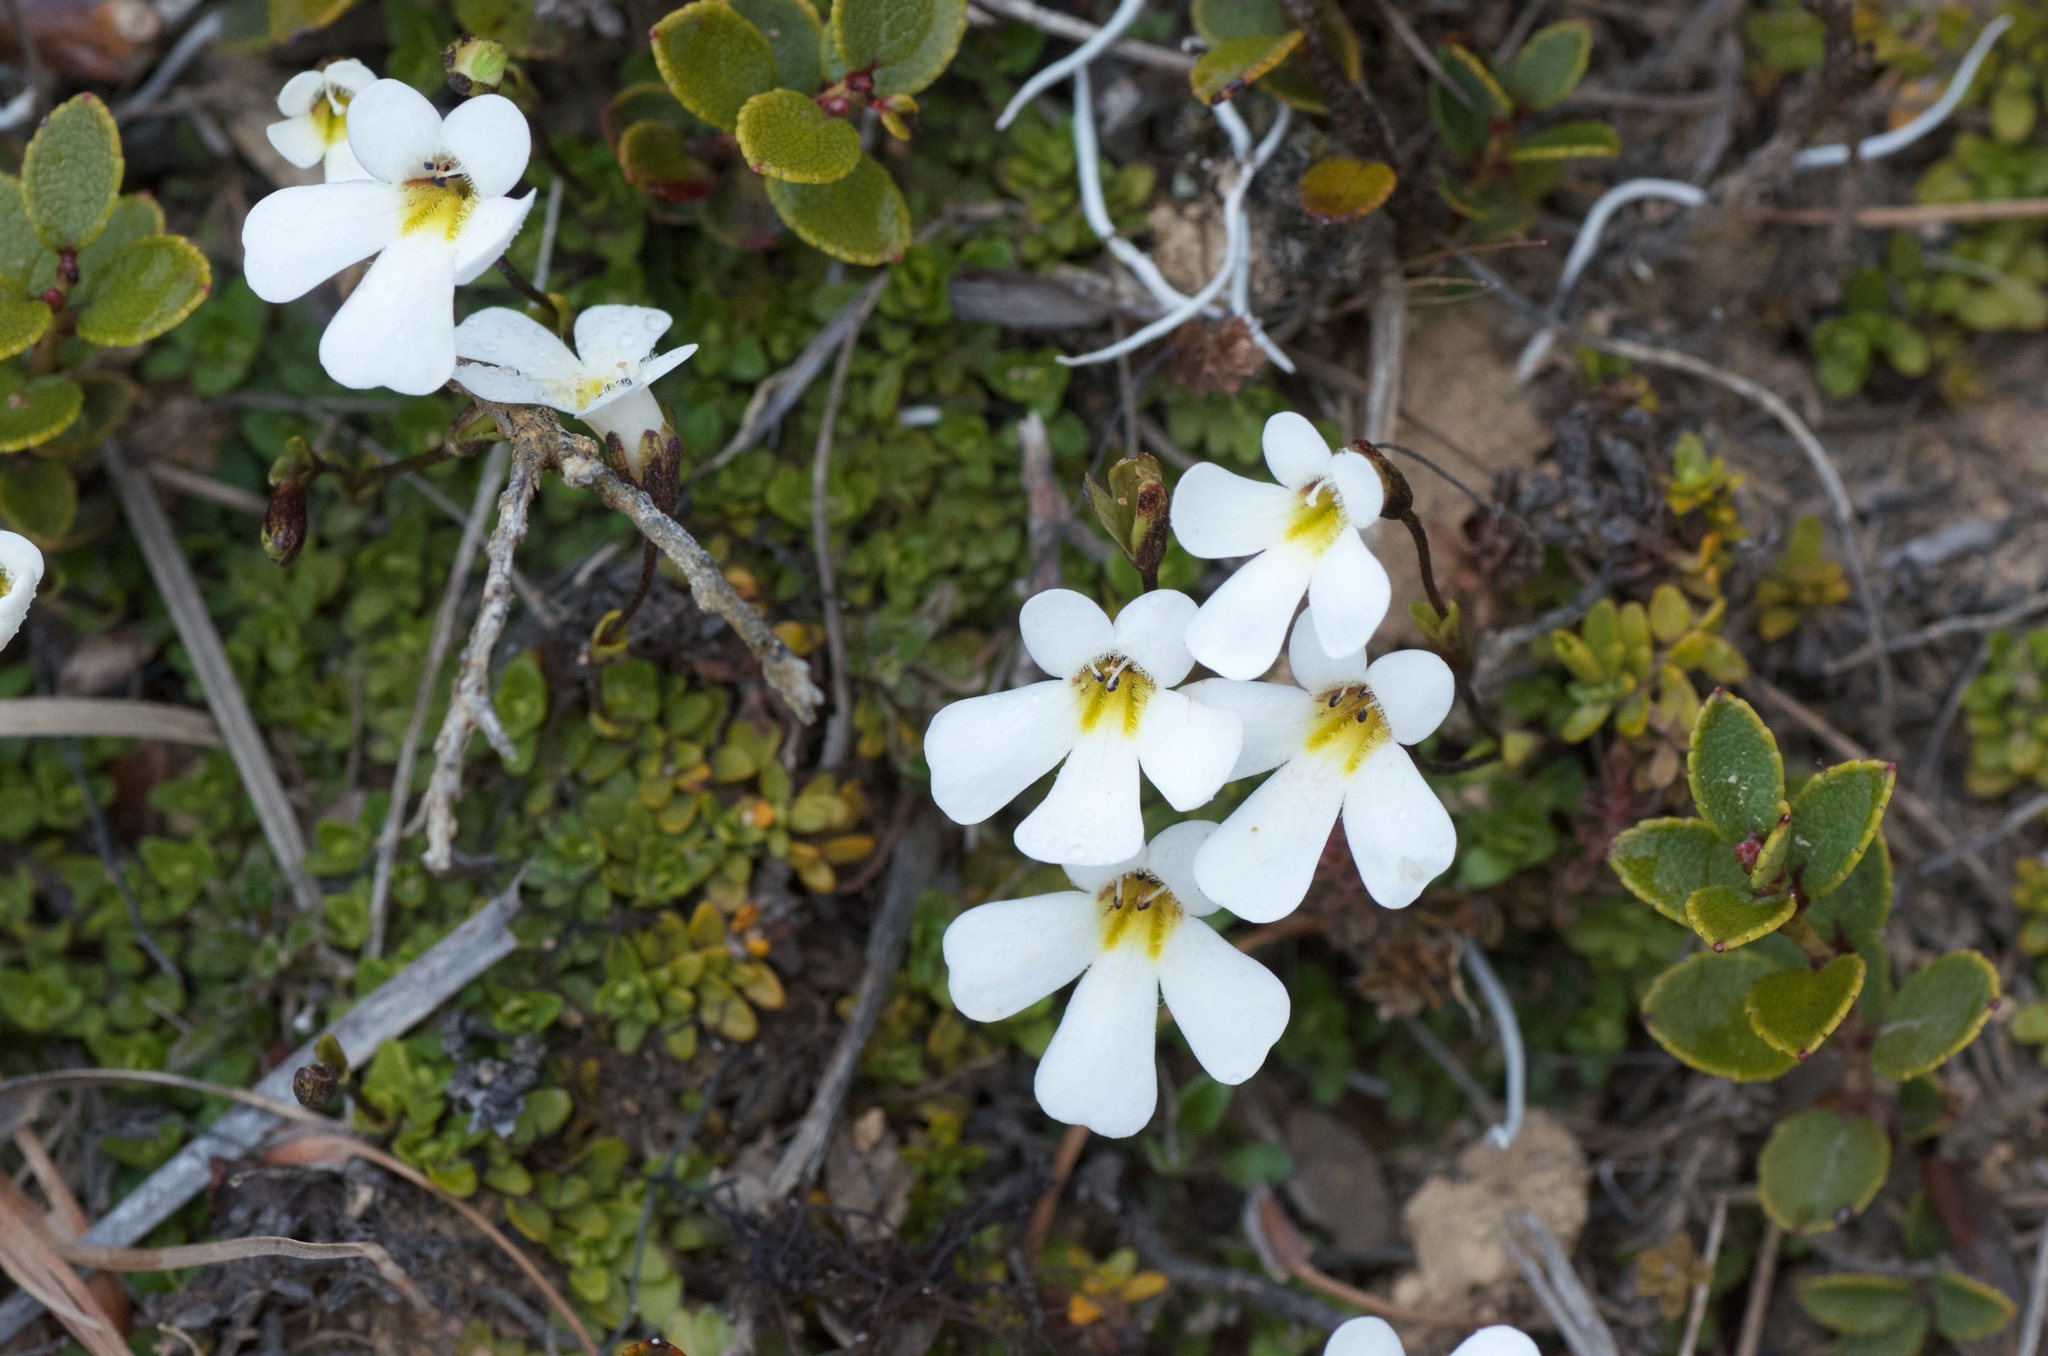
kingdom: Plantae
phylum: Tracheophyta
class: Magnoliopsida
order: Lamiales
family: Plantaginaceae
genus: Ourisia
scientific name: Ourisia caespitosa
